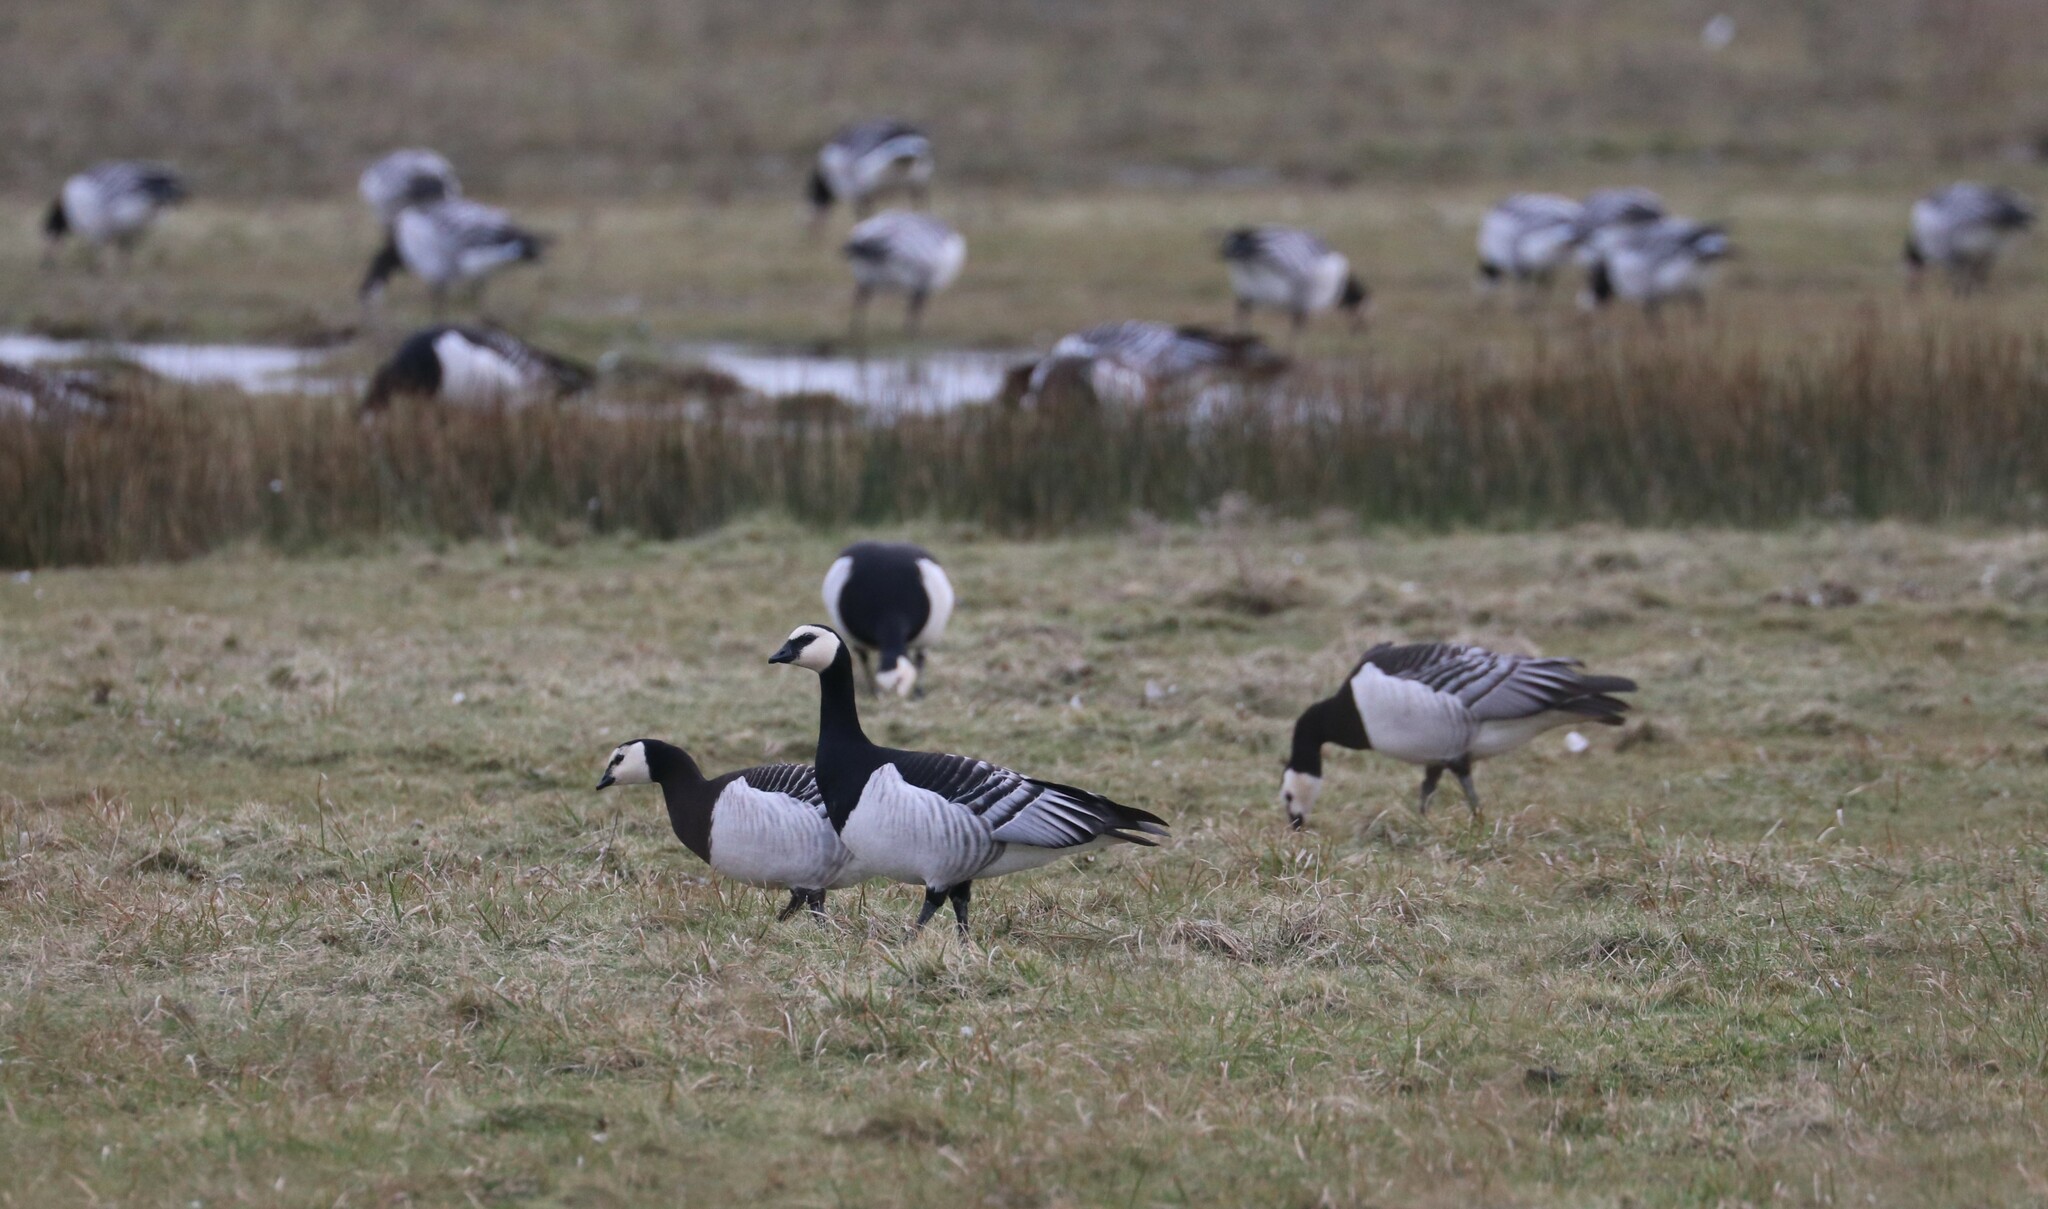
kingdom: Animalia
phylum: Chordata
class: Aves
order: Anseriformes
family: Anatidae
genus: Branta
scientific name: Branta leucopsis
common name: Barnacle goose
